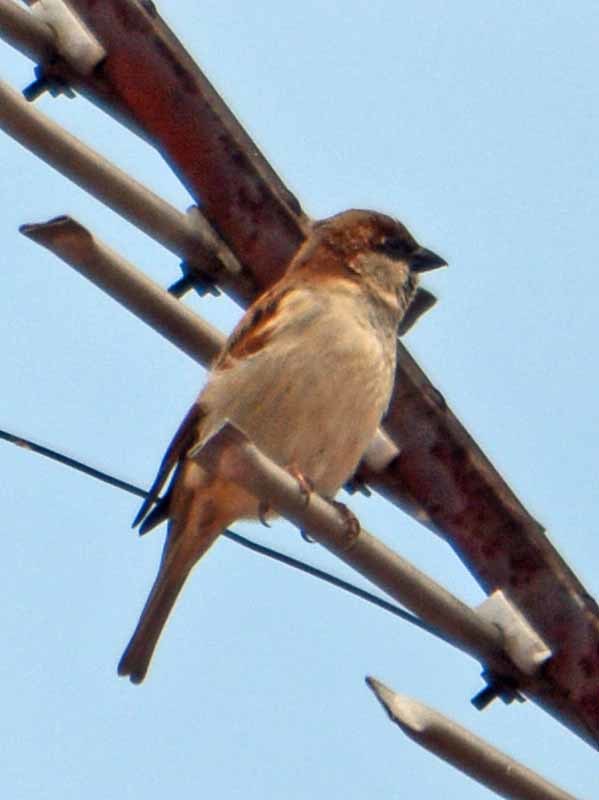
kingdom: Animalia
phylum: Chordata
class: Aves
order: Passeriformes
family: Passeridae
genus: Passer
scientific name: Passer domesticus
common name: House sparrow
